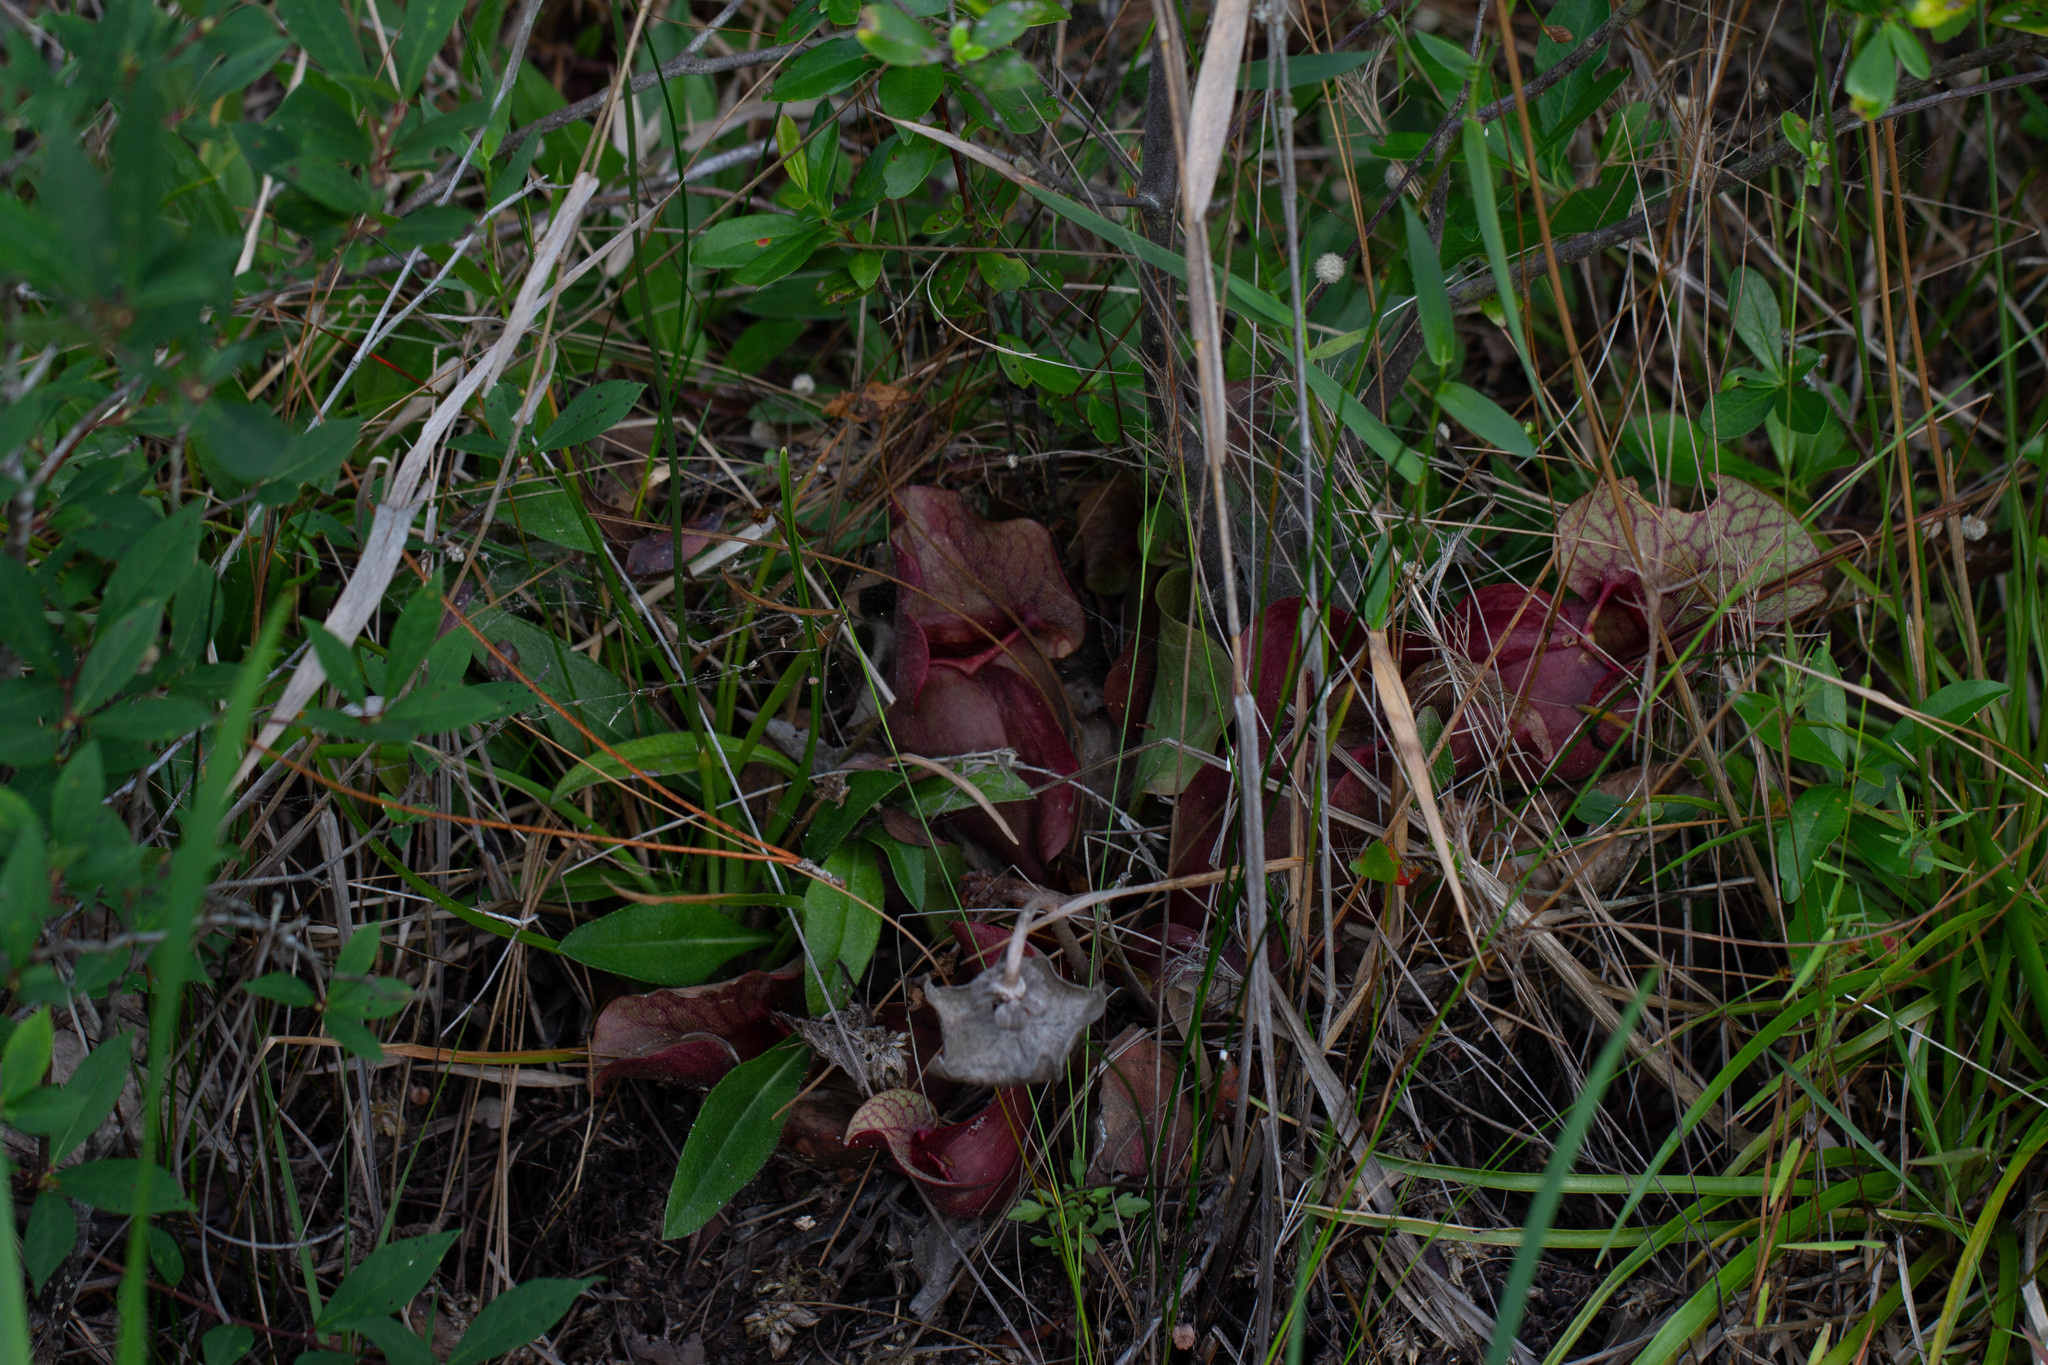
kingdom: Plantae
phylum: Tracheophyta
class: Magnoliopsida
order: Ericales
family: Sarraceniaceae
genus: Sarracenia
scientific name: Sarracenia rosea
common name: Pink pitcherplant
